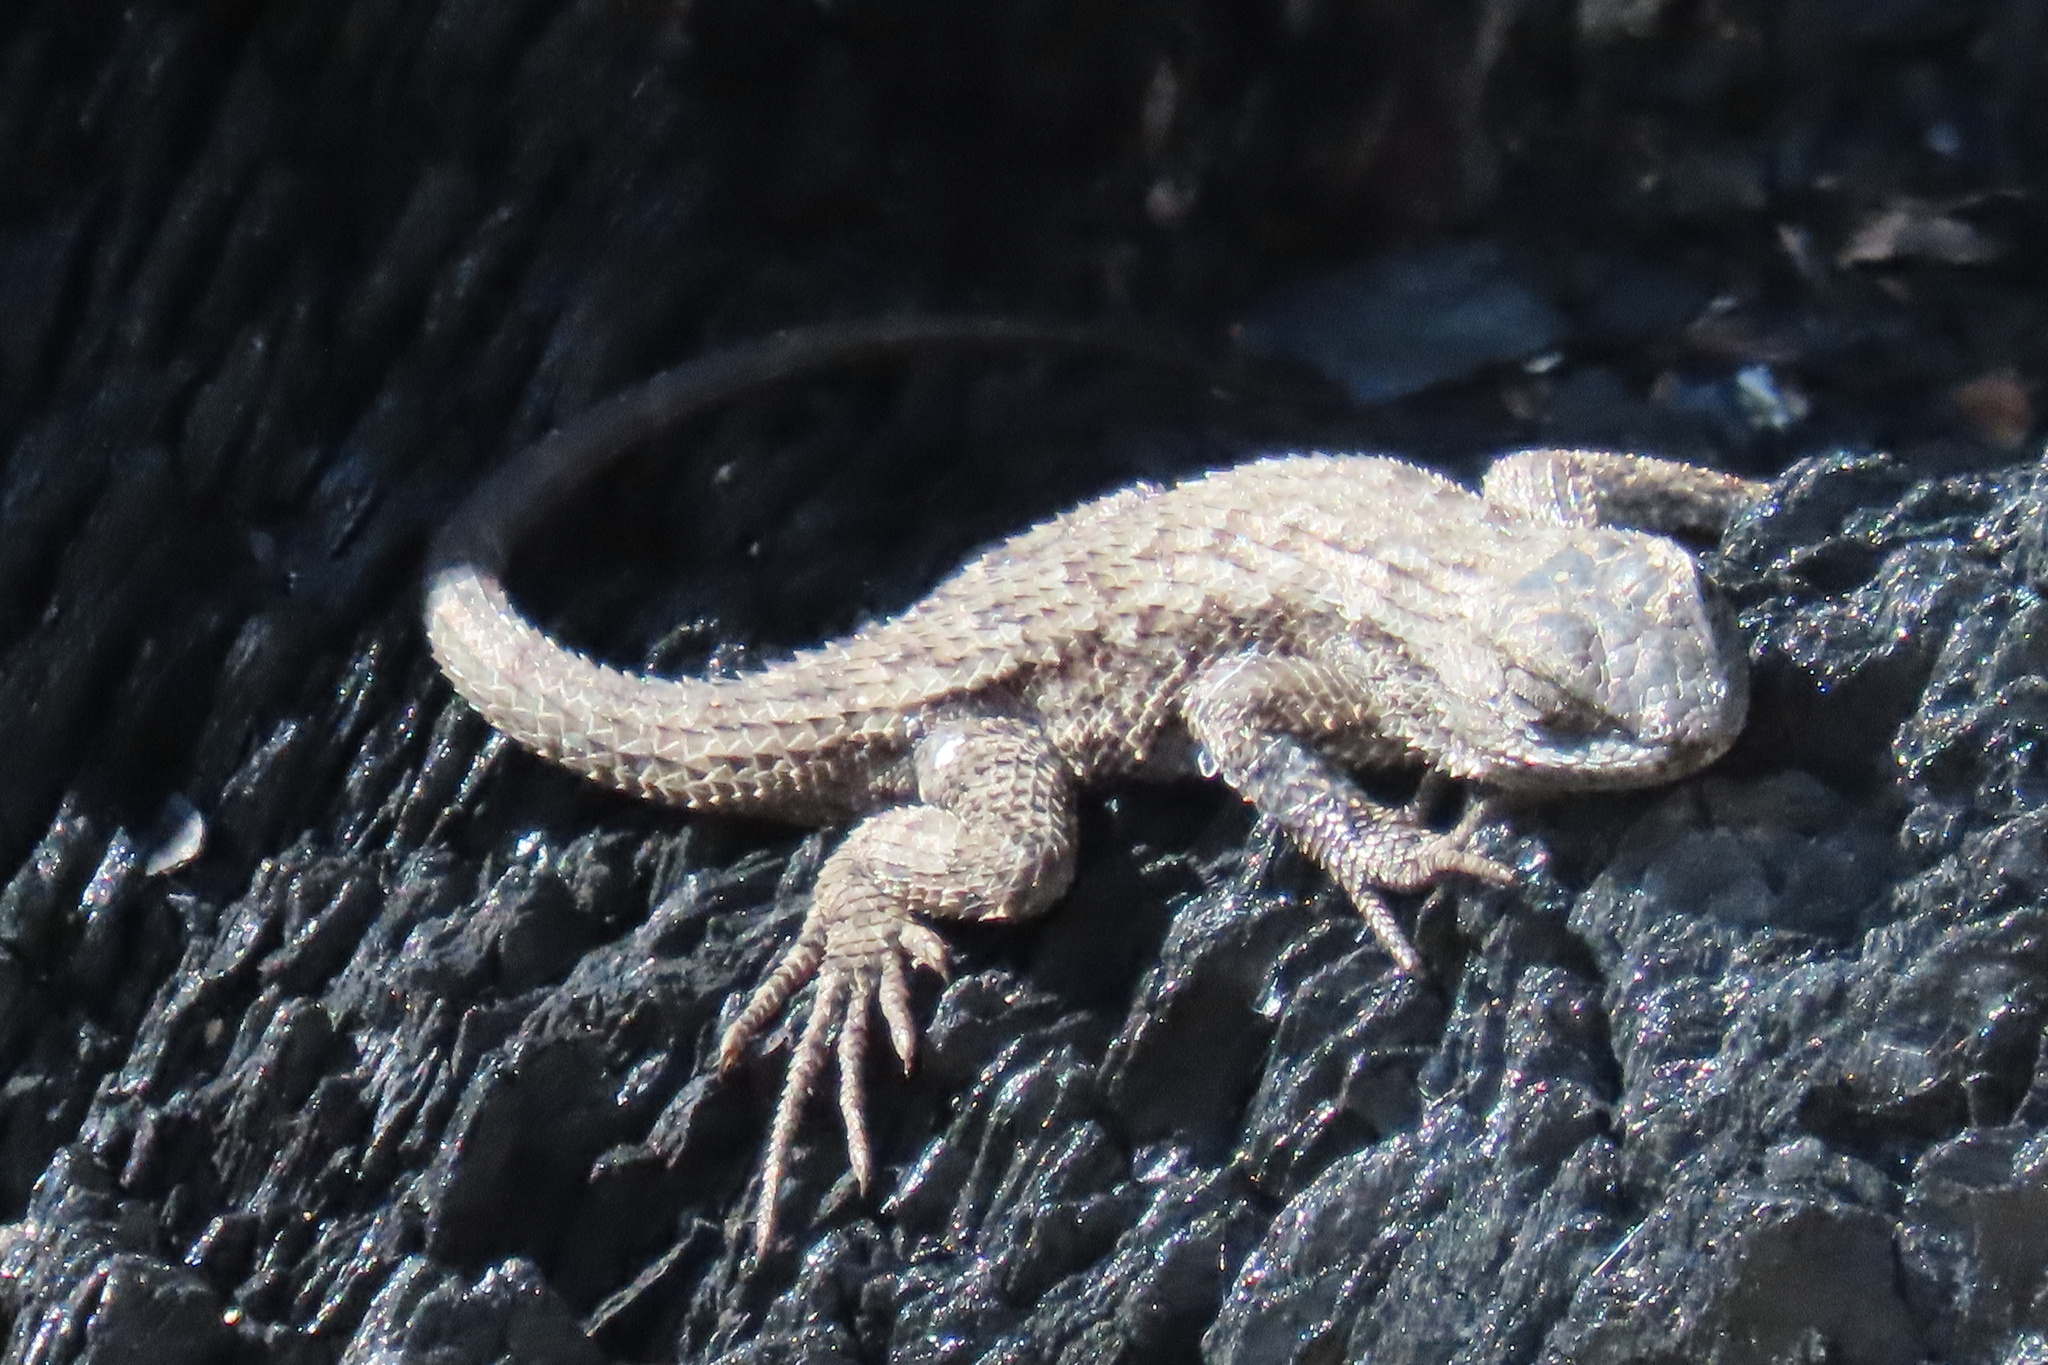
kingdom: Animalia
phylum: Chordata
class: Squamata
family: Phrynosomatidae
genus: Sceloporus
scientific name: Sceloporus occidentalis
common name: Western fence lizard
